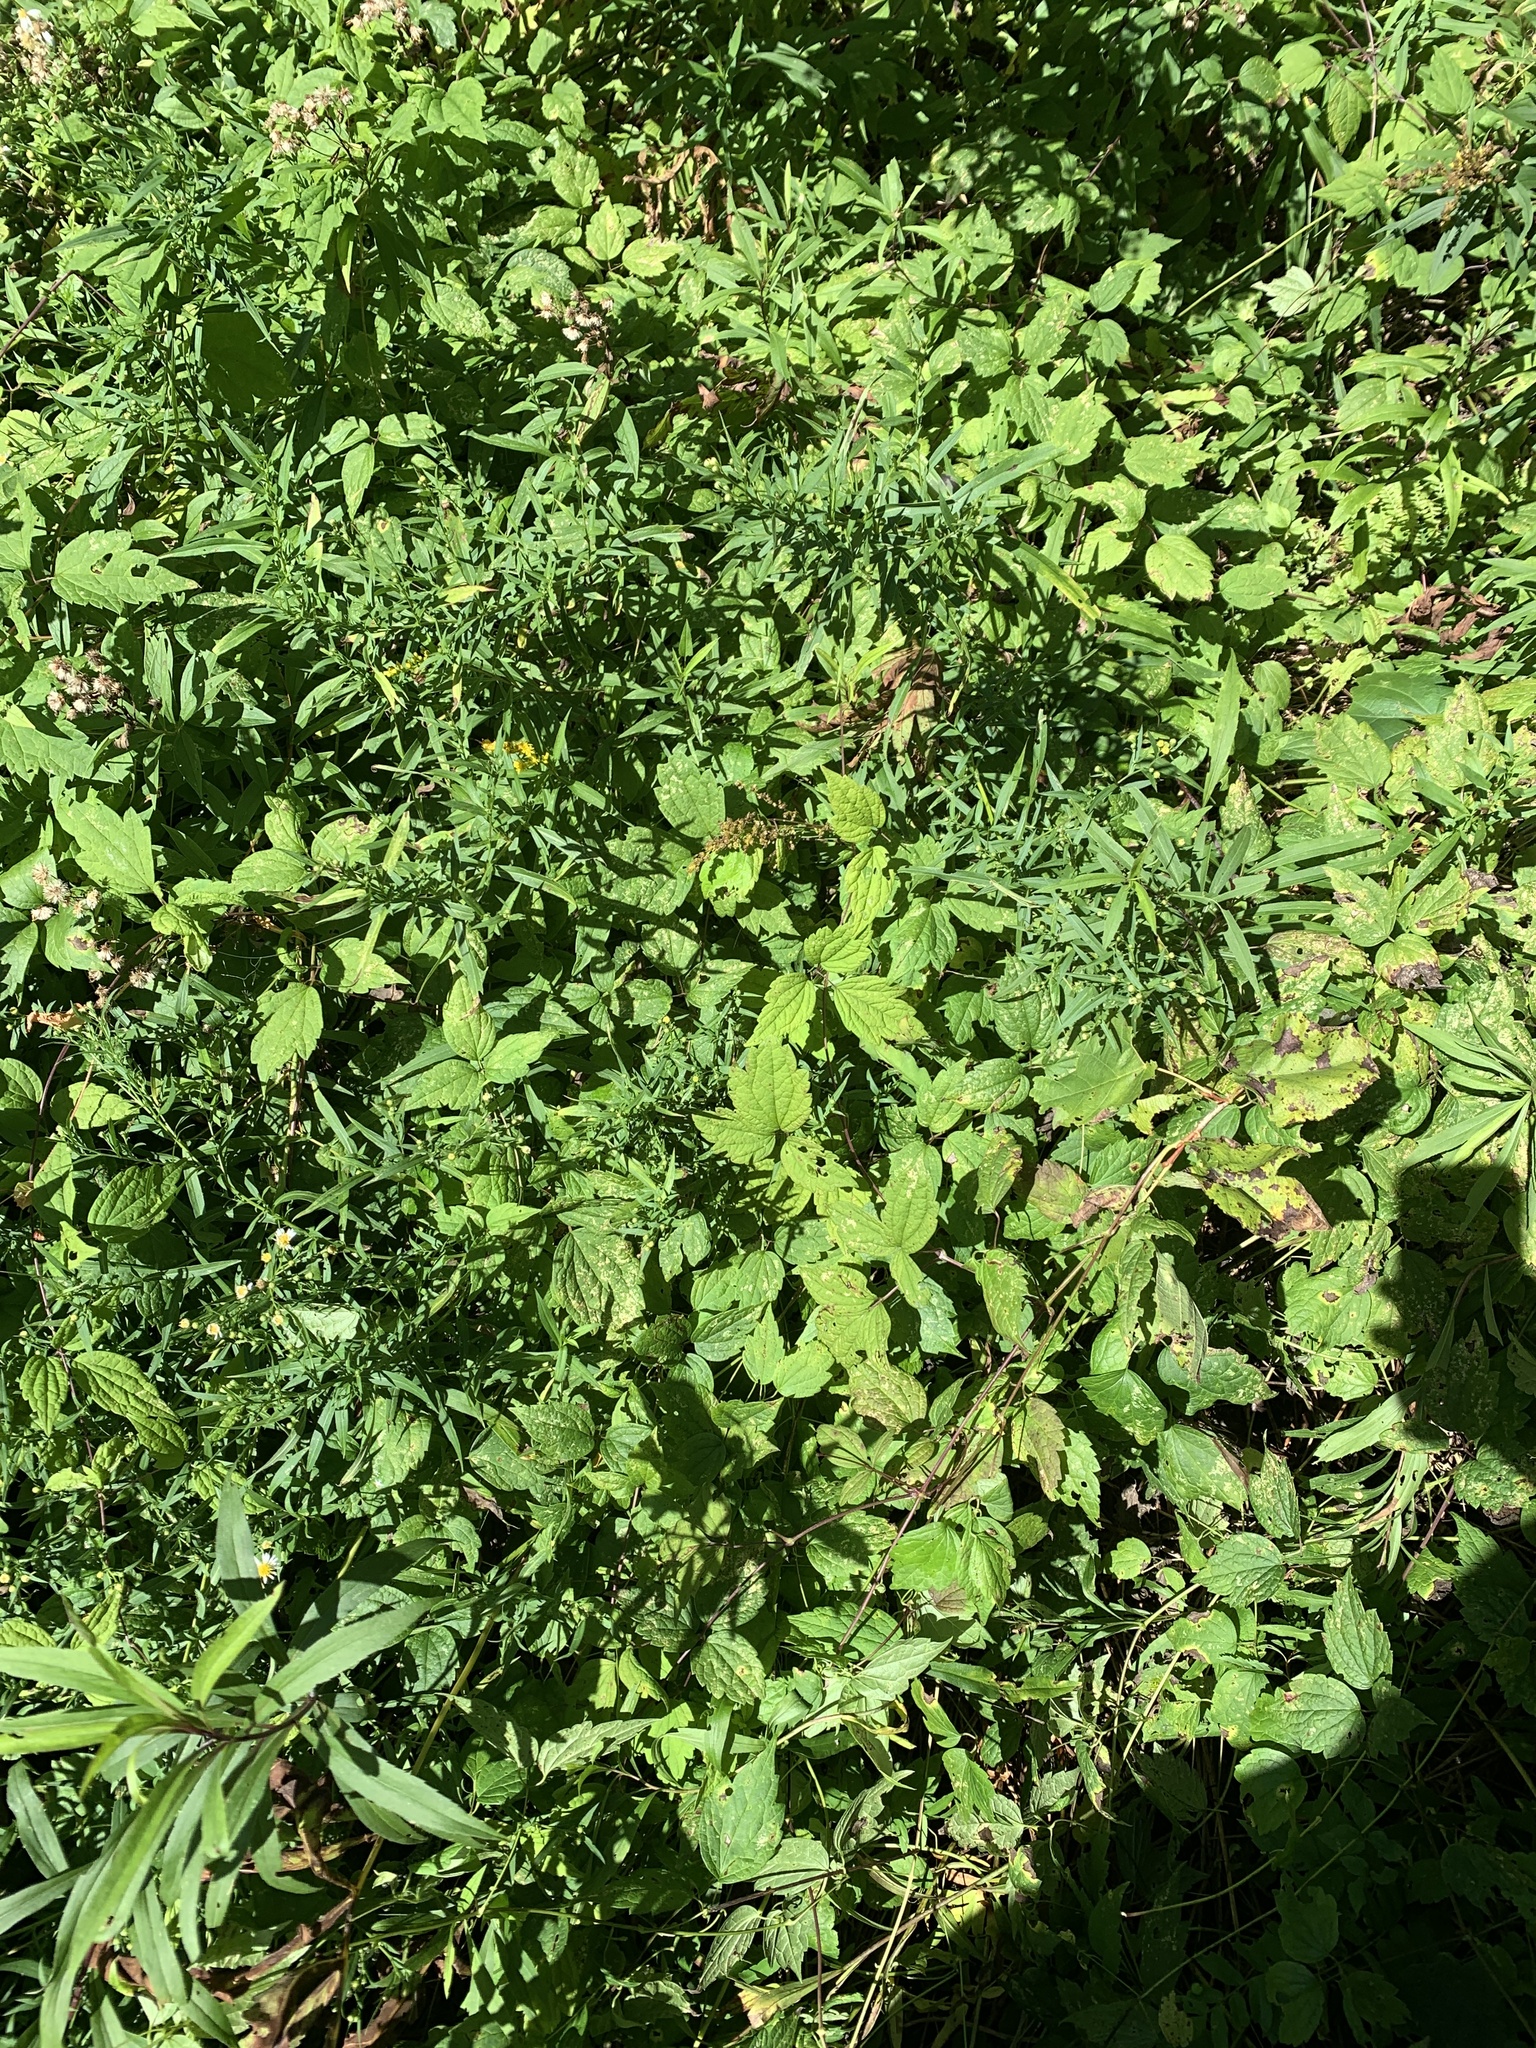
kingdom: Plantae
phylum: Tracheophyta
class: Magnoliopsida
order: Ranunculales
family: Ranunculaceae
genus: Clematis
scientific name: Clematis virginiana
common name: Virgin's-bower
